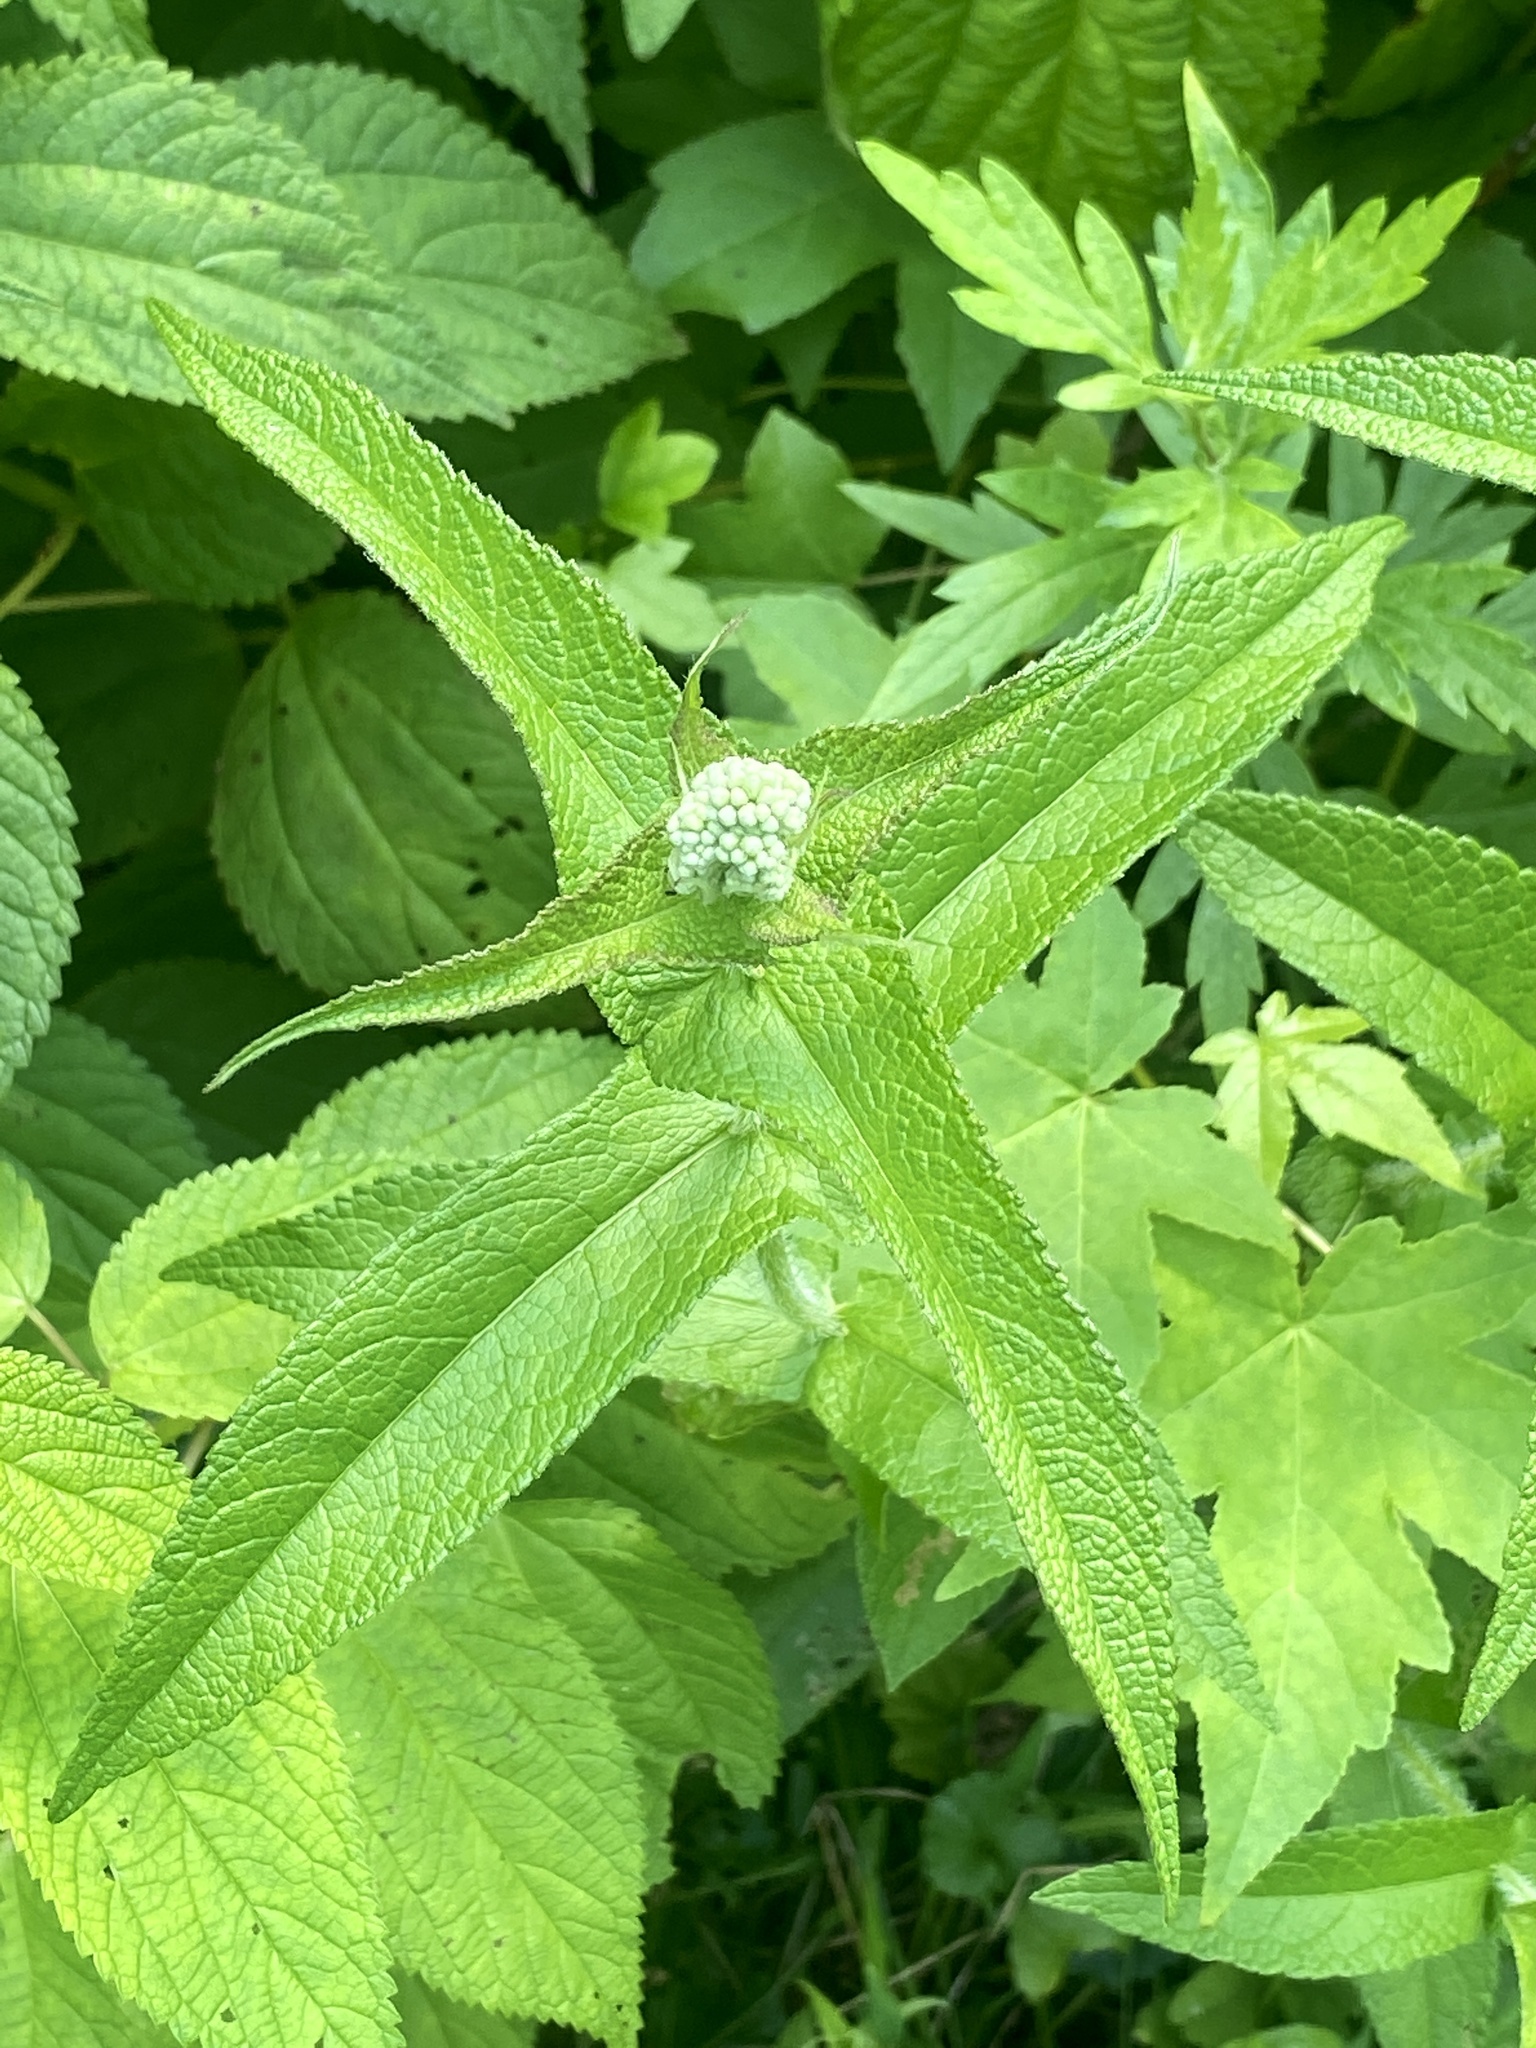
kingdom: Plantae
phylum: Tracheophyta
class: Magnoliopsida
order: Asterales
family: Asteraceae
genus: Eupatorium
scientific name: Eupatorium perfoliatum
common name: Boneset
